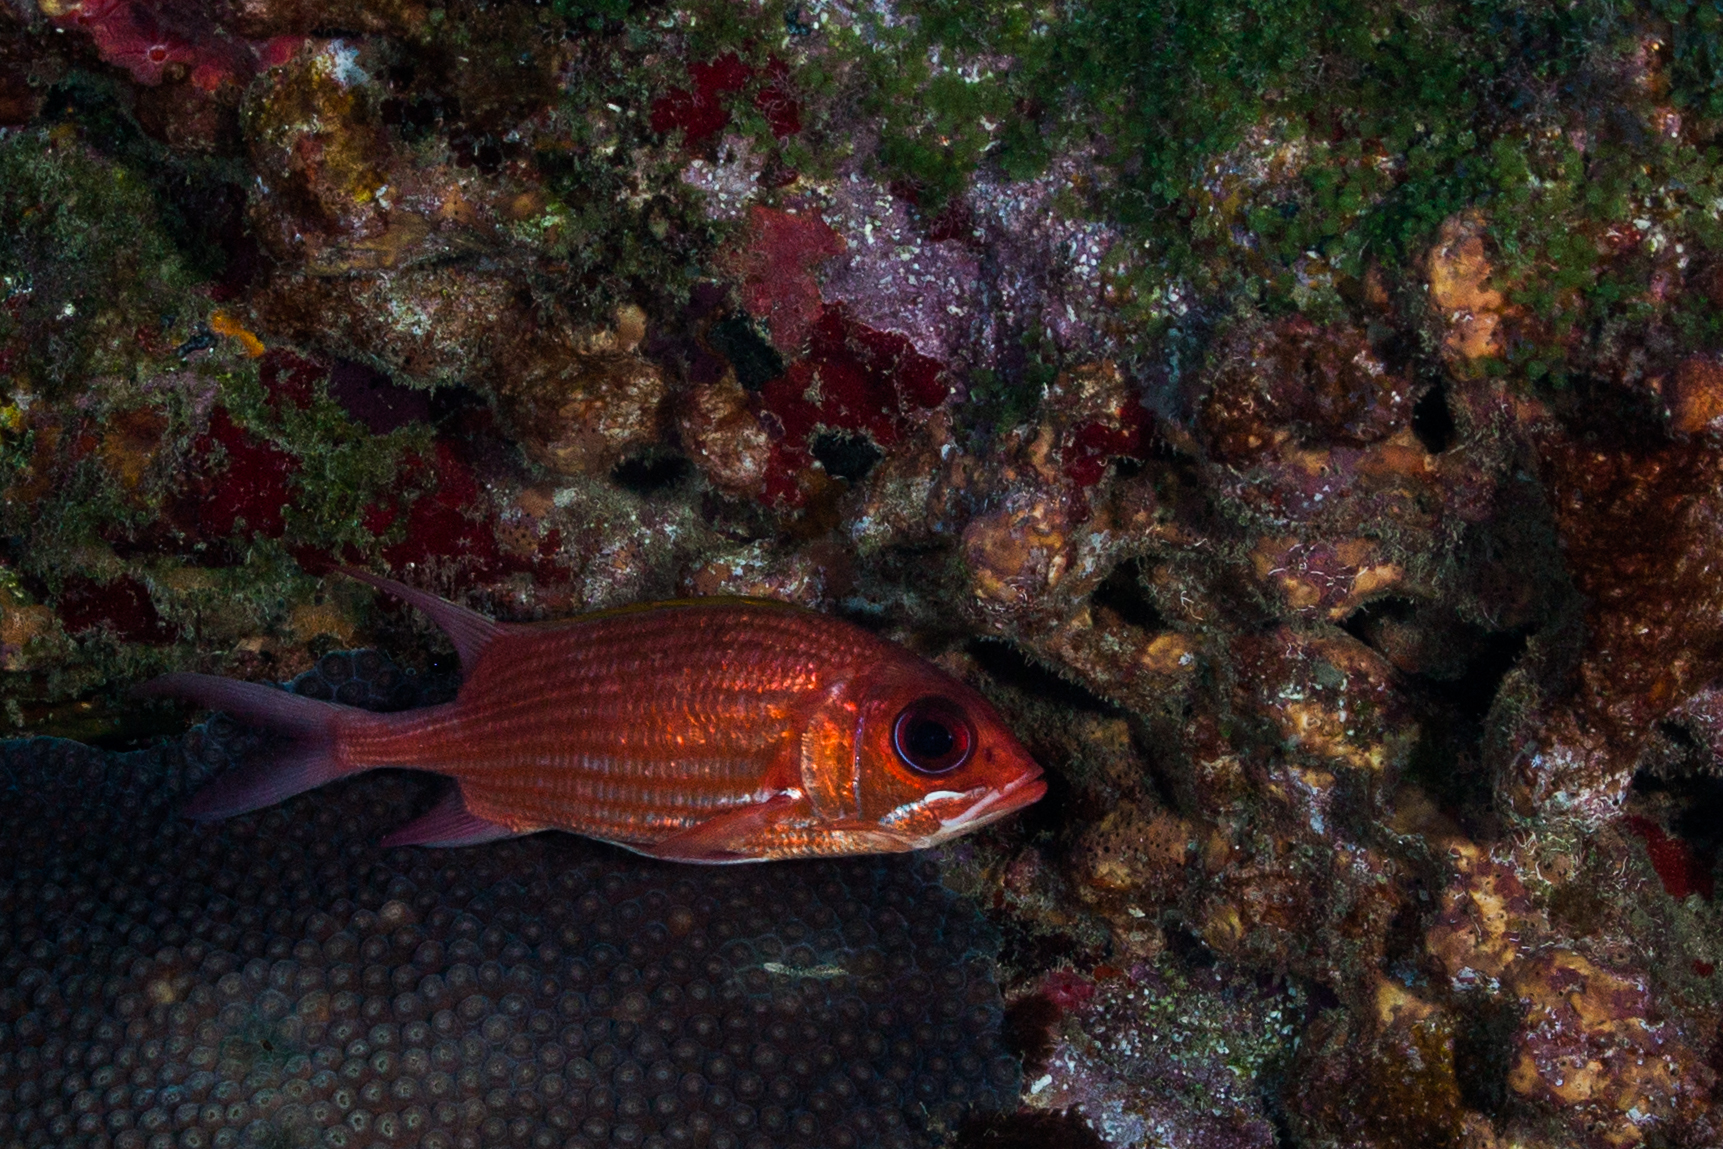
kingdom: Animalia
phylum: Chordata
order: Beryciformes
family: Holocentridae
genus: Holocentrus
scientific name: Holocentrus adscensionis
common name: Squirrelfish
